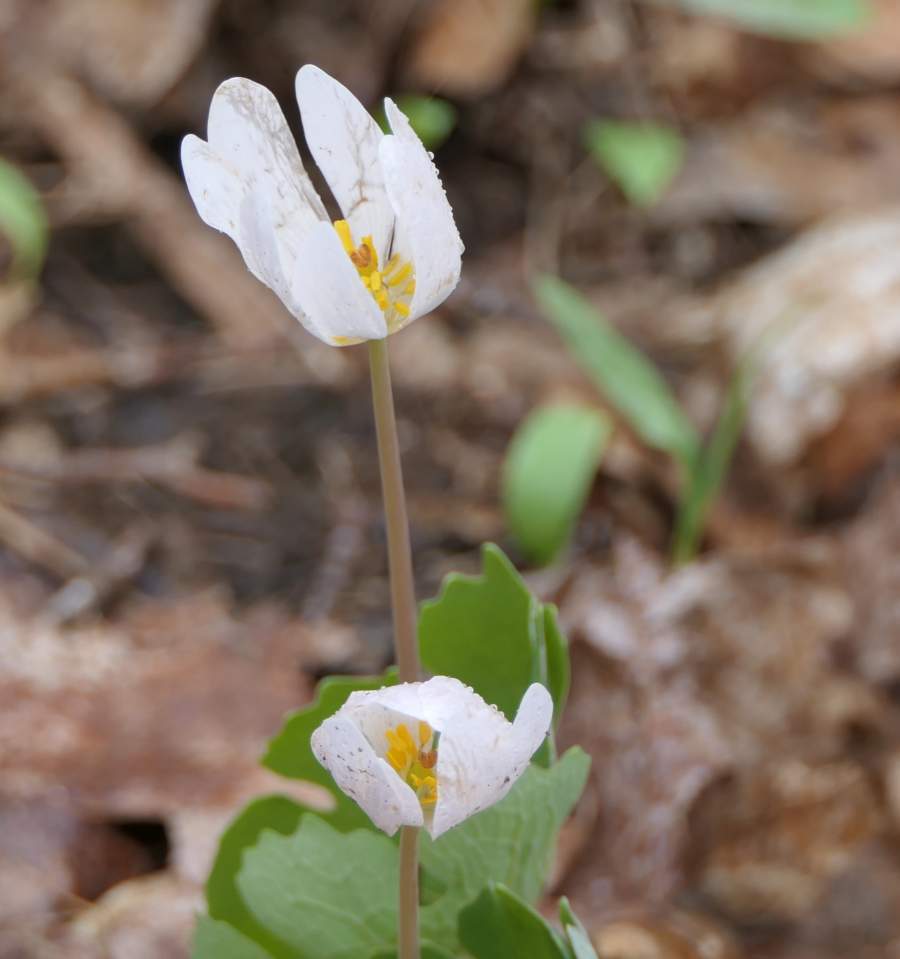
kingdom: Plantae
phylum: Tracheophyta
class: Magnoliopsida
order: Ranunculales
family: Papaveraceae
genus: Sanguinaria
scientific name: Sanguinaria canadensis
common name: Bloodroot
